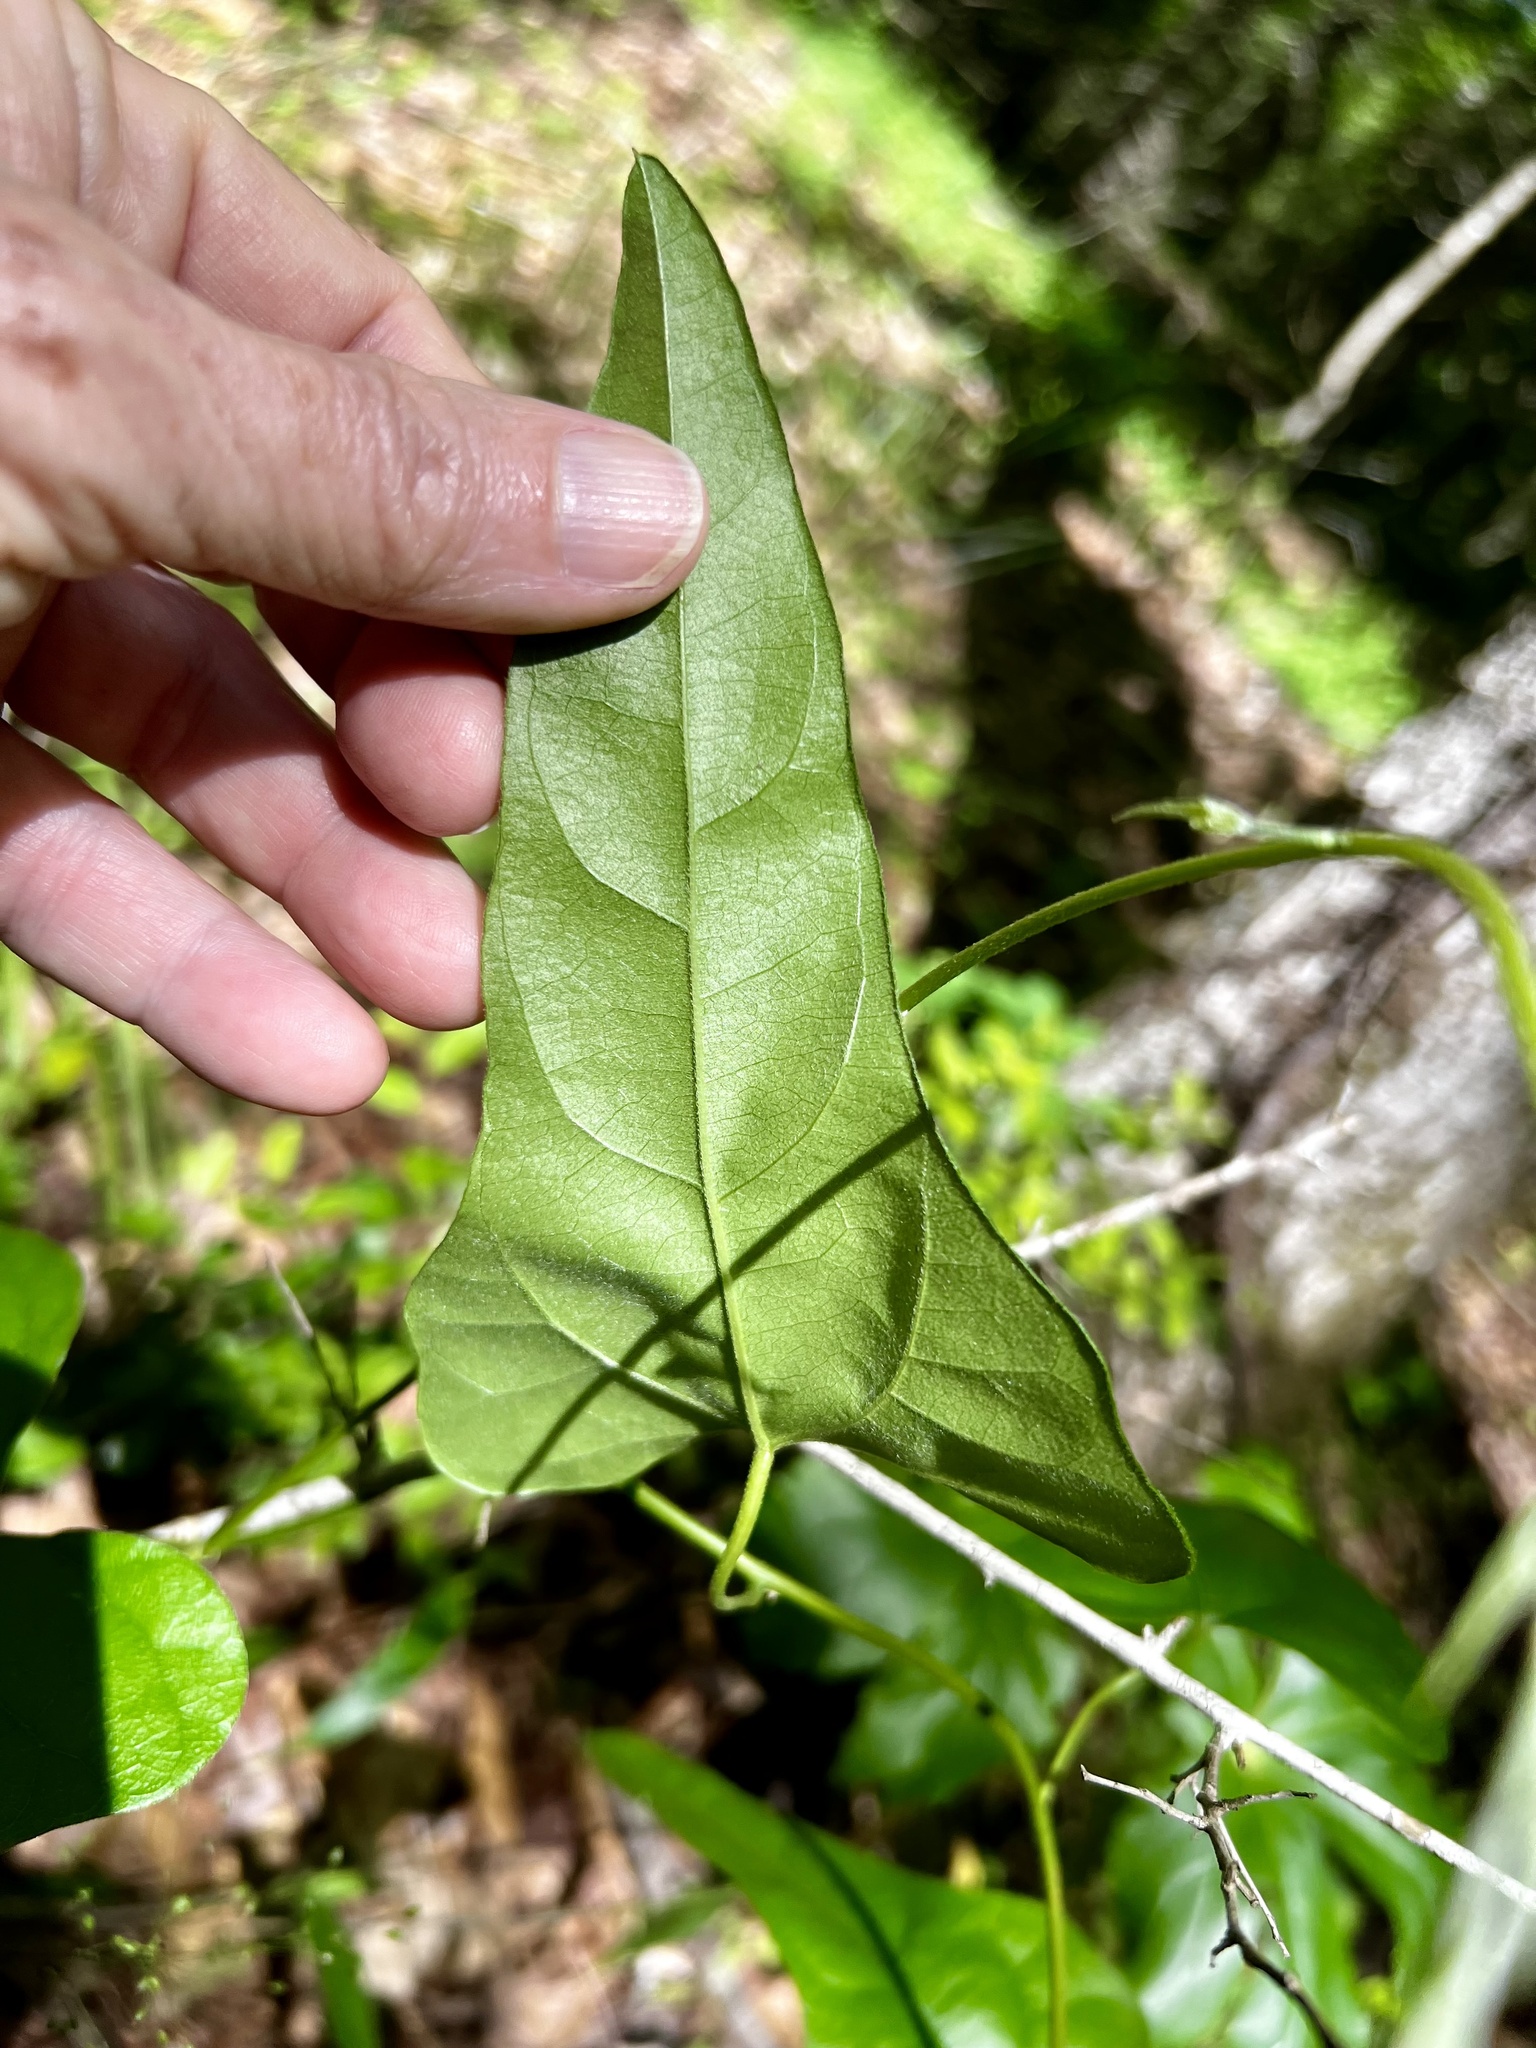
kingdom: Plantae
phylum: Tracheophyta
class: Magnoliopsida
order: Ranunculales
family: Menispermaceae
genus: Cocculus
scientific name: Cocculus carolinus
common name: Carolina moonseed
